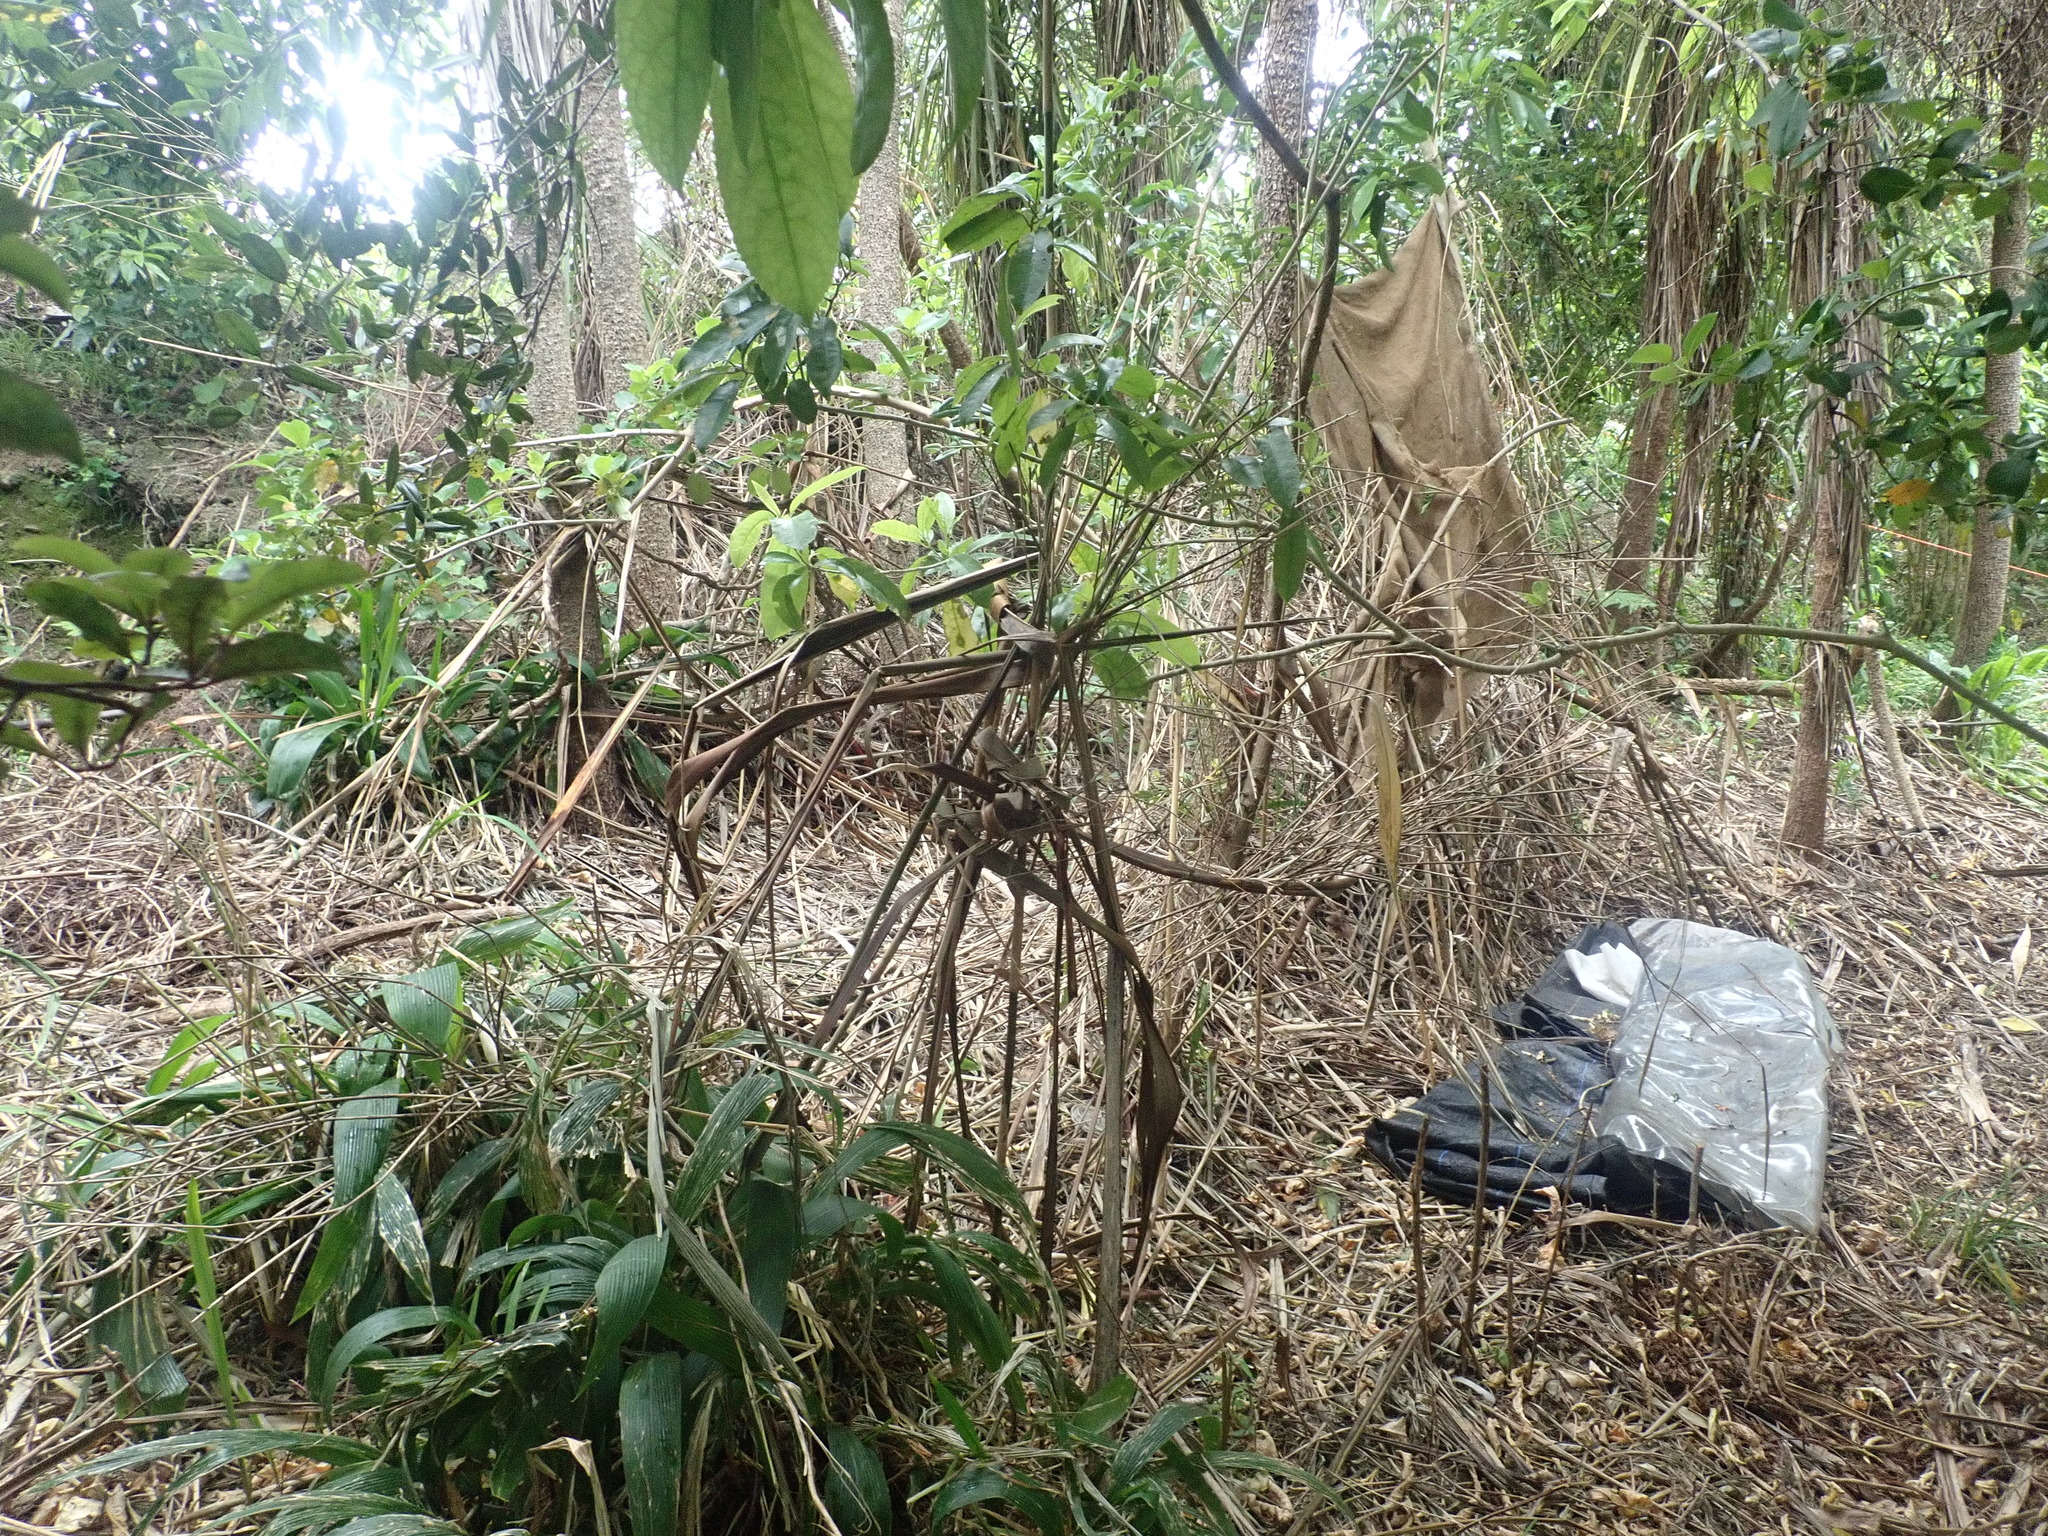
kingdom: Plantae
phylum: Tracheophyta
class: Magnoliopsida
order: Malpighiales
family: Violaceae
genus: Melicytus
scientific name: Melicytus ramiflorus
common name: Mahoe
